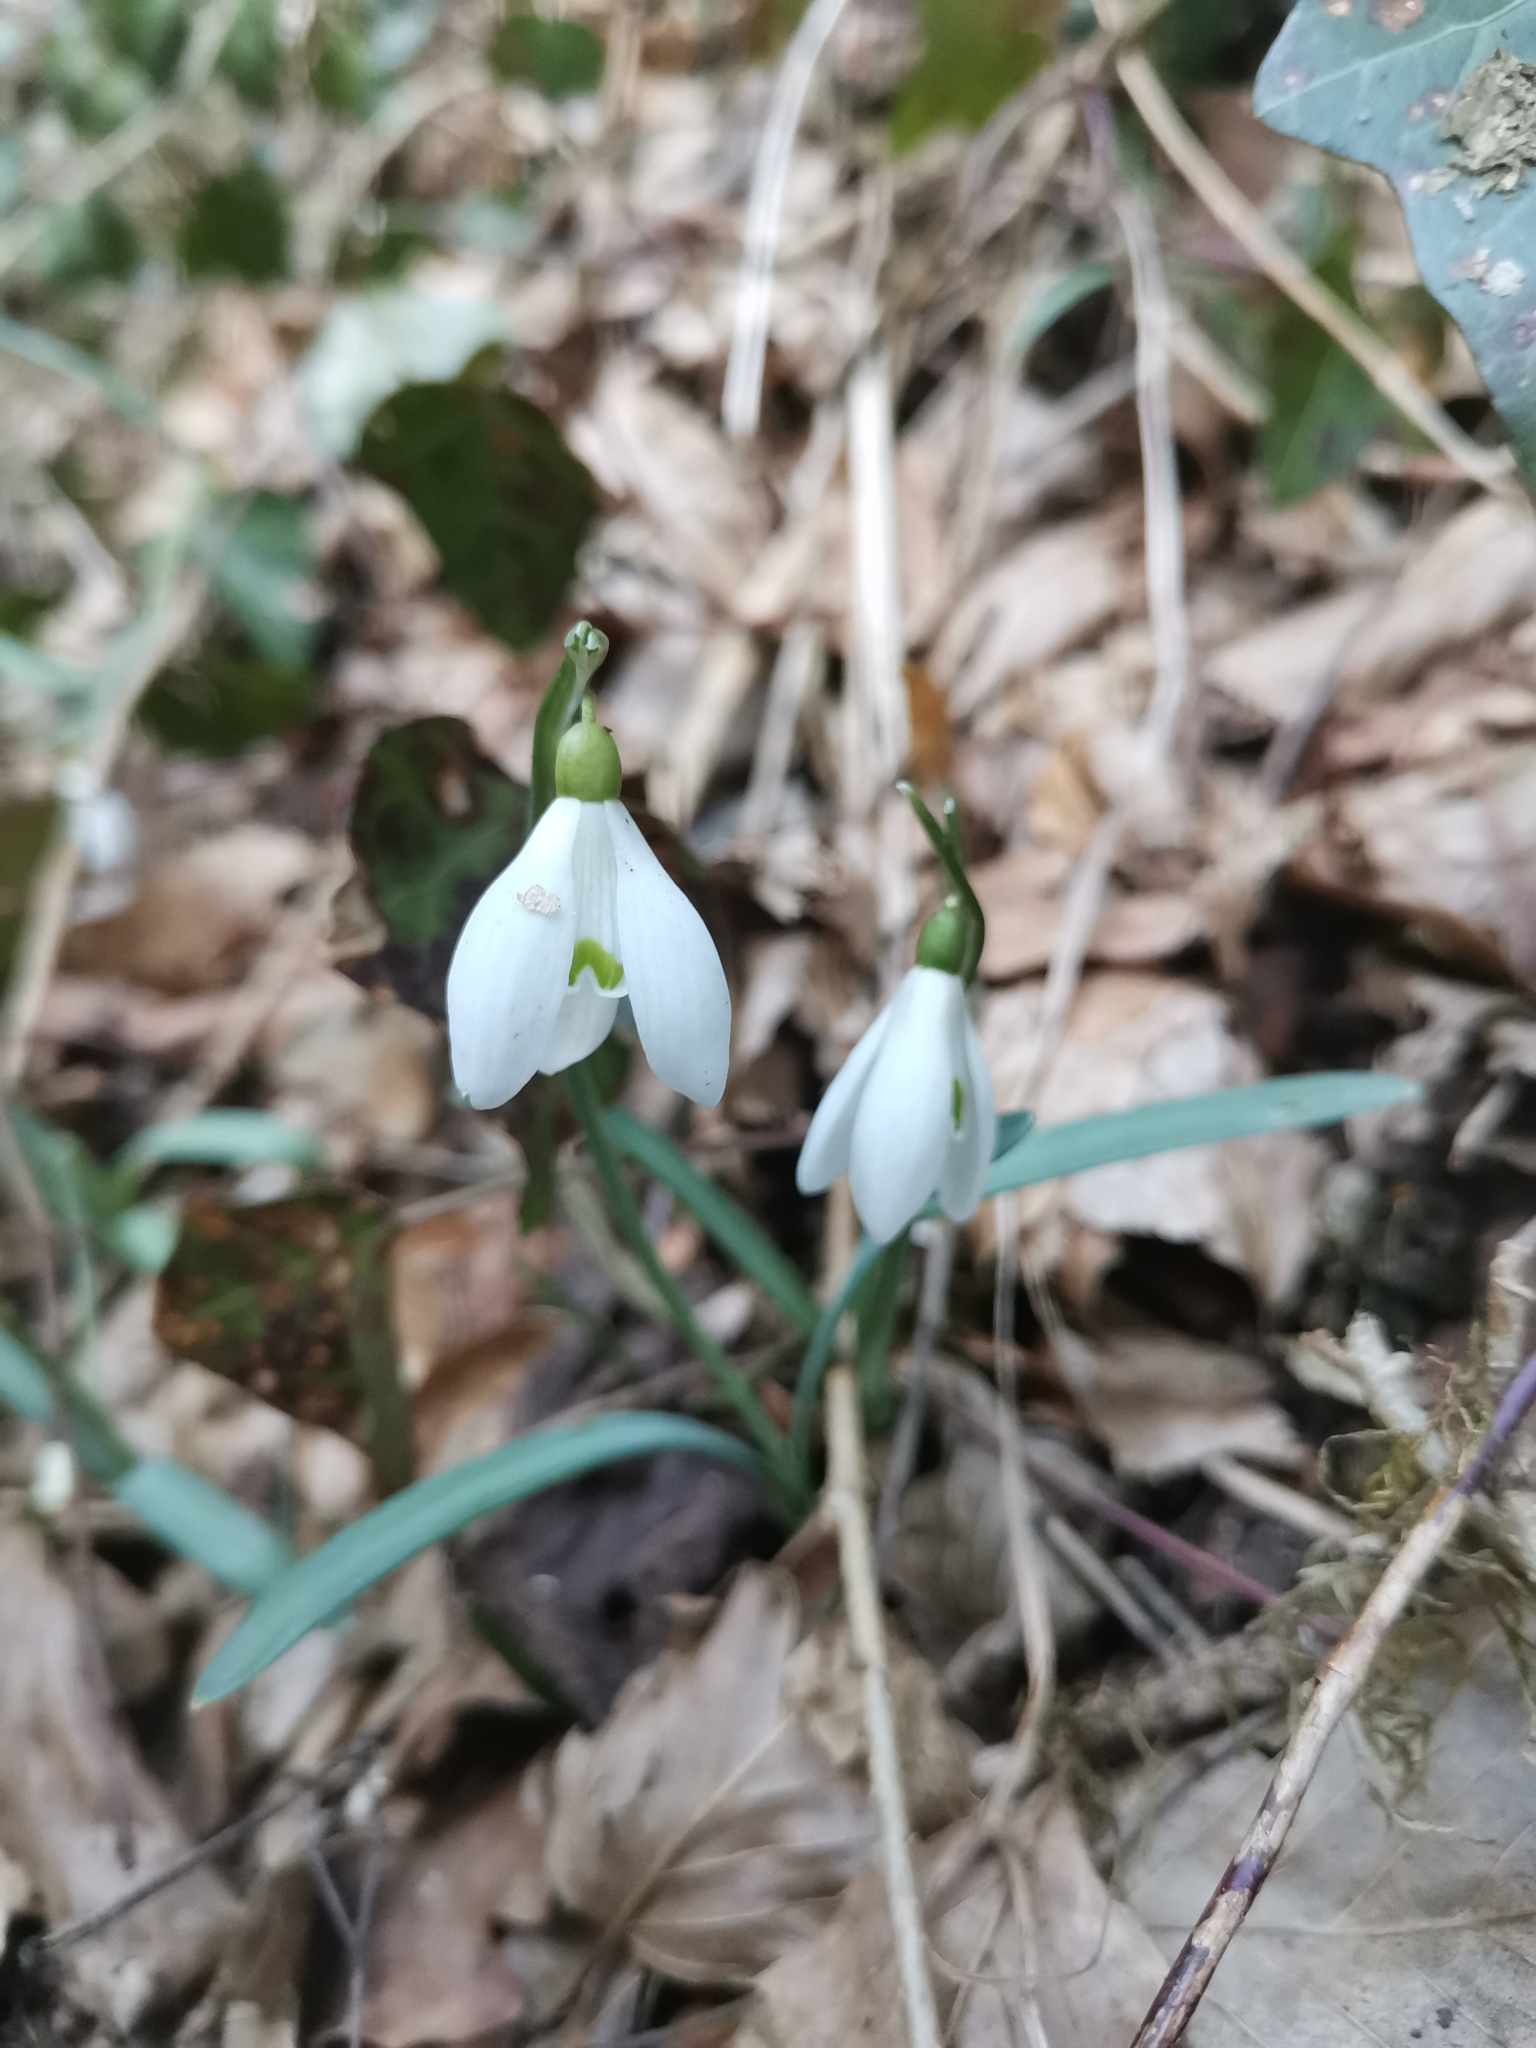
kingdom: Plantae
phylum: Tracheophyta
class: Liliopsida
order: Asparagales
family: Amaryllidaceae
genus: Galanthus
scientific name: Galanthus nivalis
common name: Snowdrop
